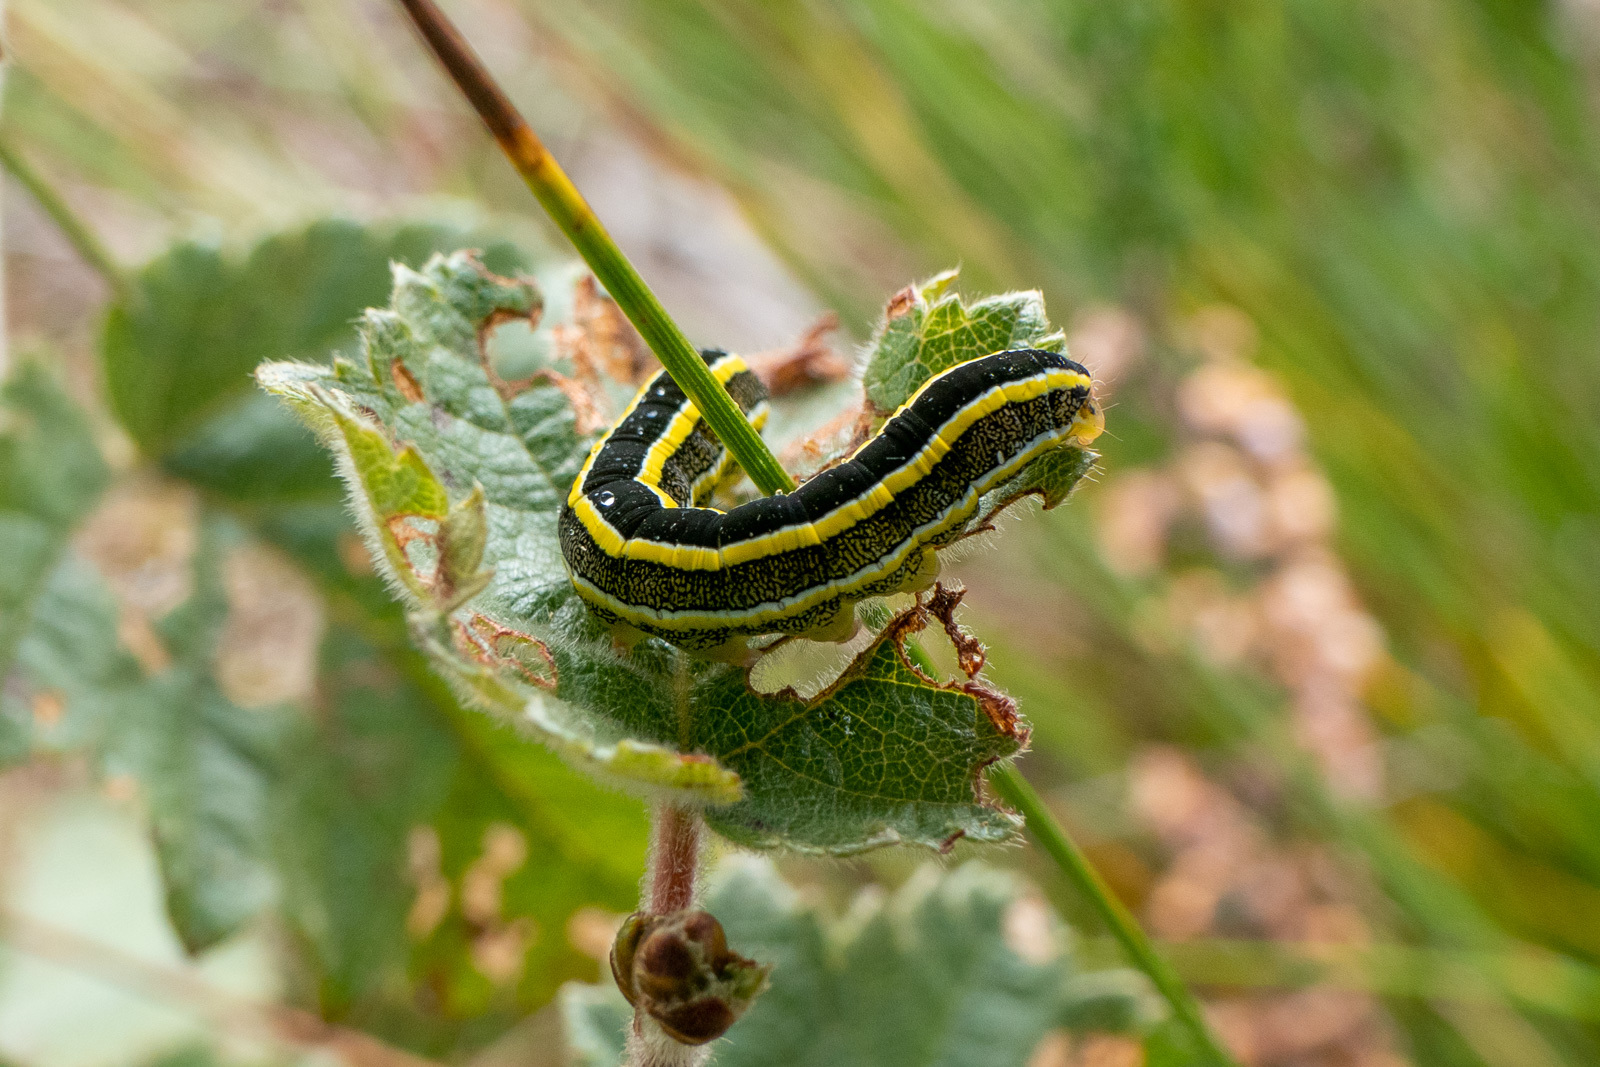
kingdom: Animalia
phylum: Arthropoda
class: Insecta
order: Lepidoptera
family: Noctuidae
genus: Ceramica
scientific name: Ceramica pisi
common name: Broom moth
